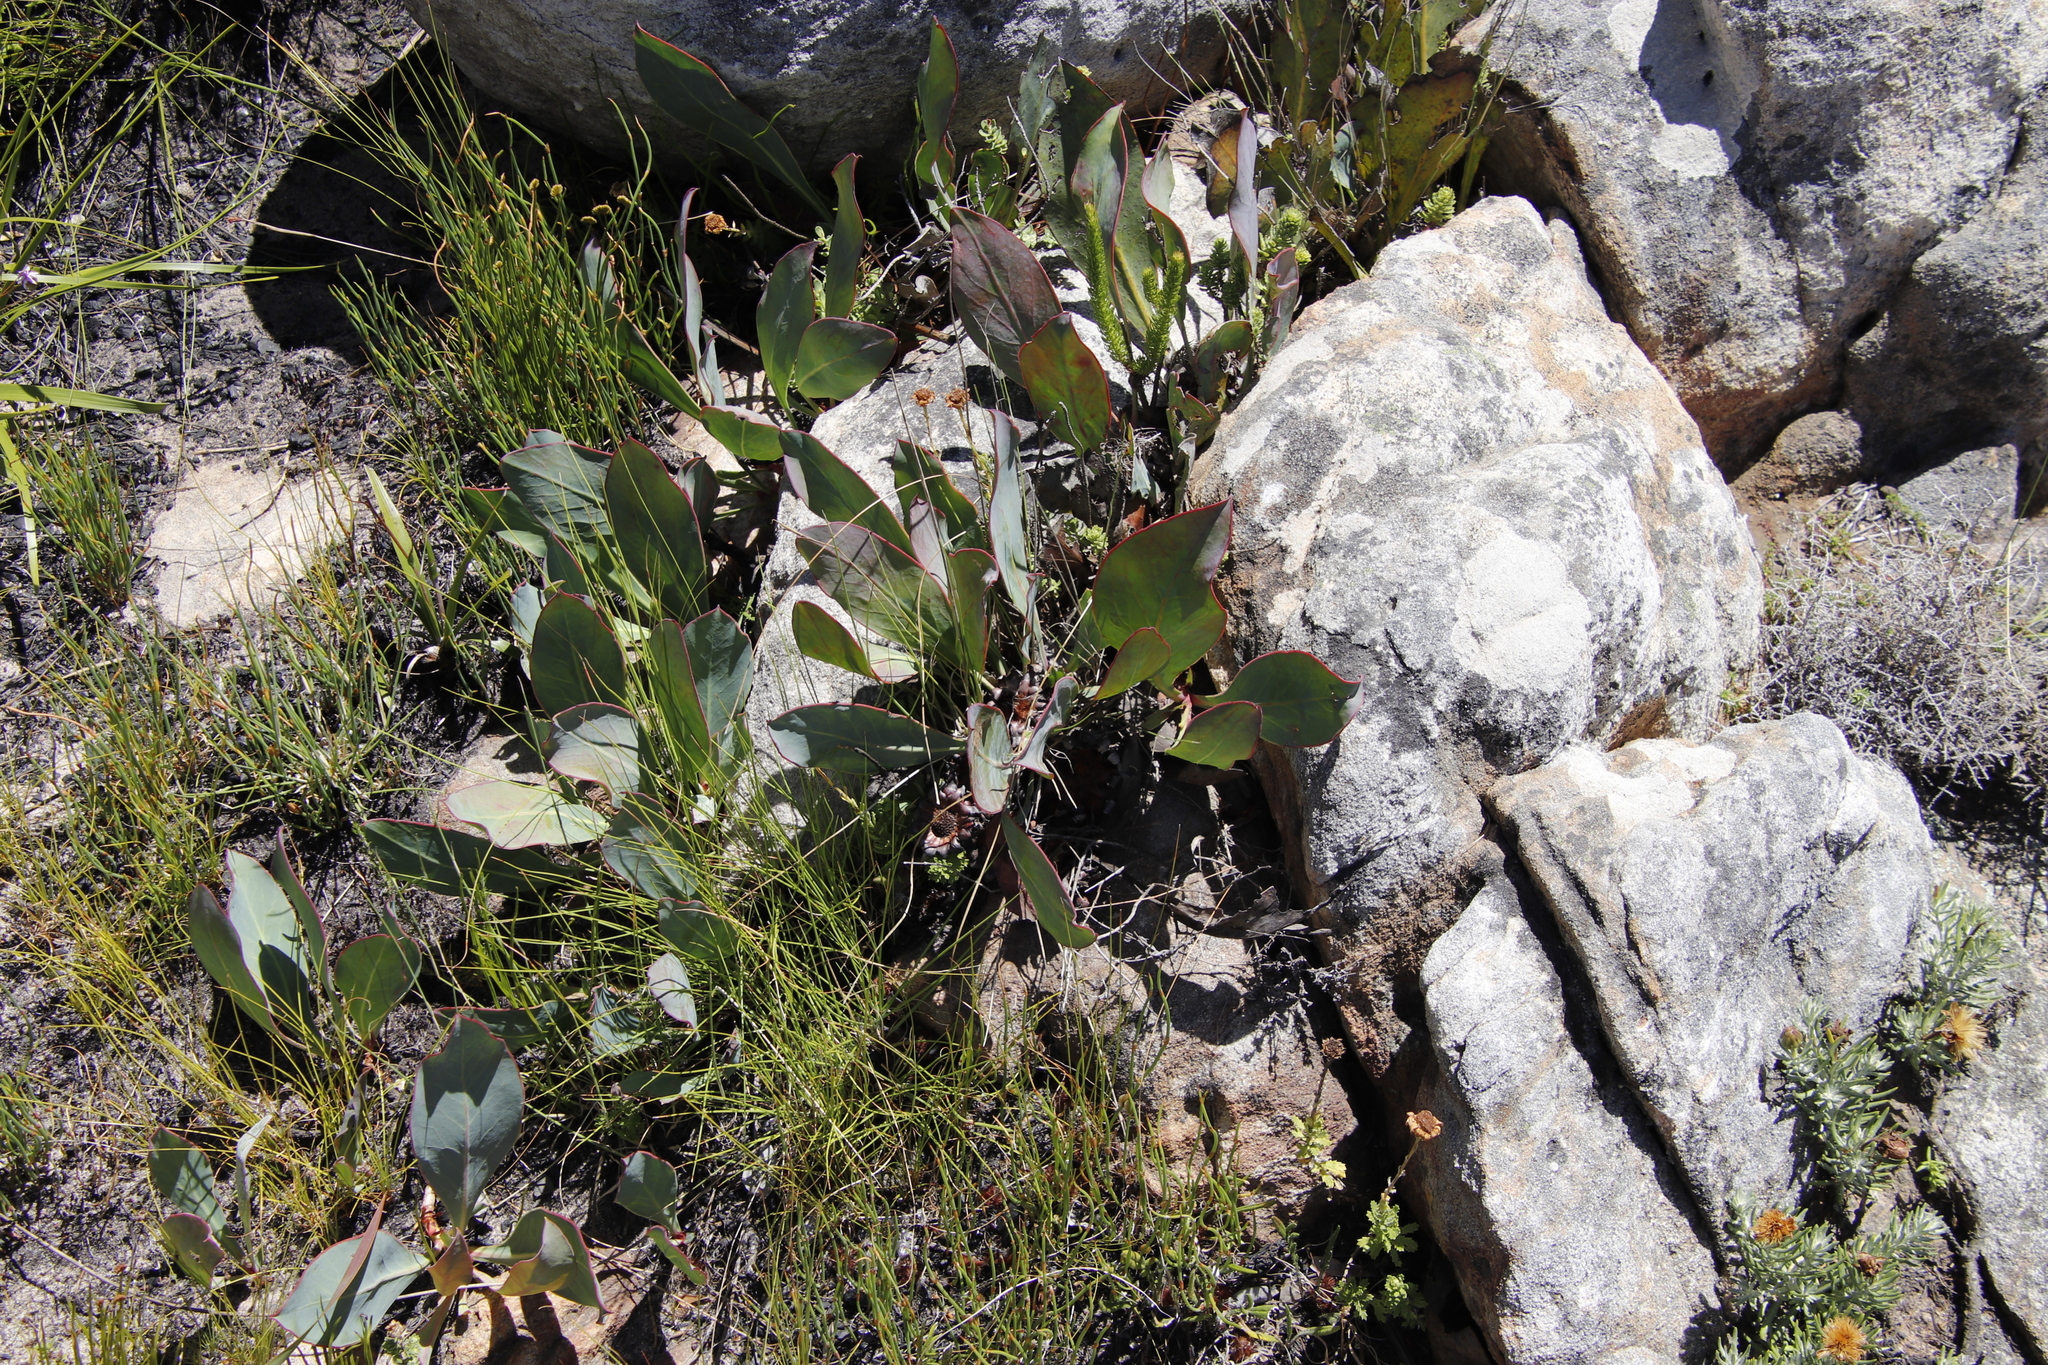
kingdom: Plantae
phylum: Tracheophyta
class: Magnoliopsida
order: Proteales
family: Proteaceae
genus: Protea
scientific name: Protea acaulos
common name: Common ground sugarbush
